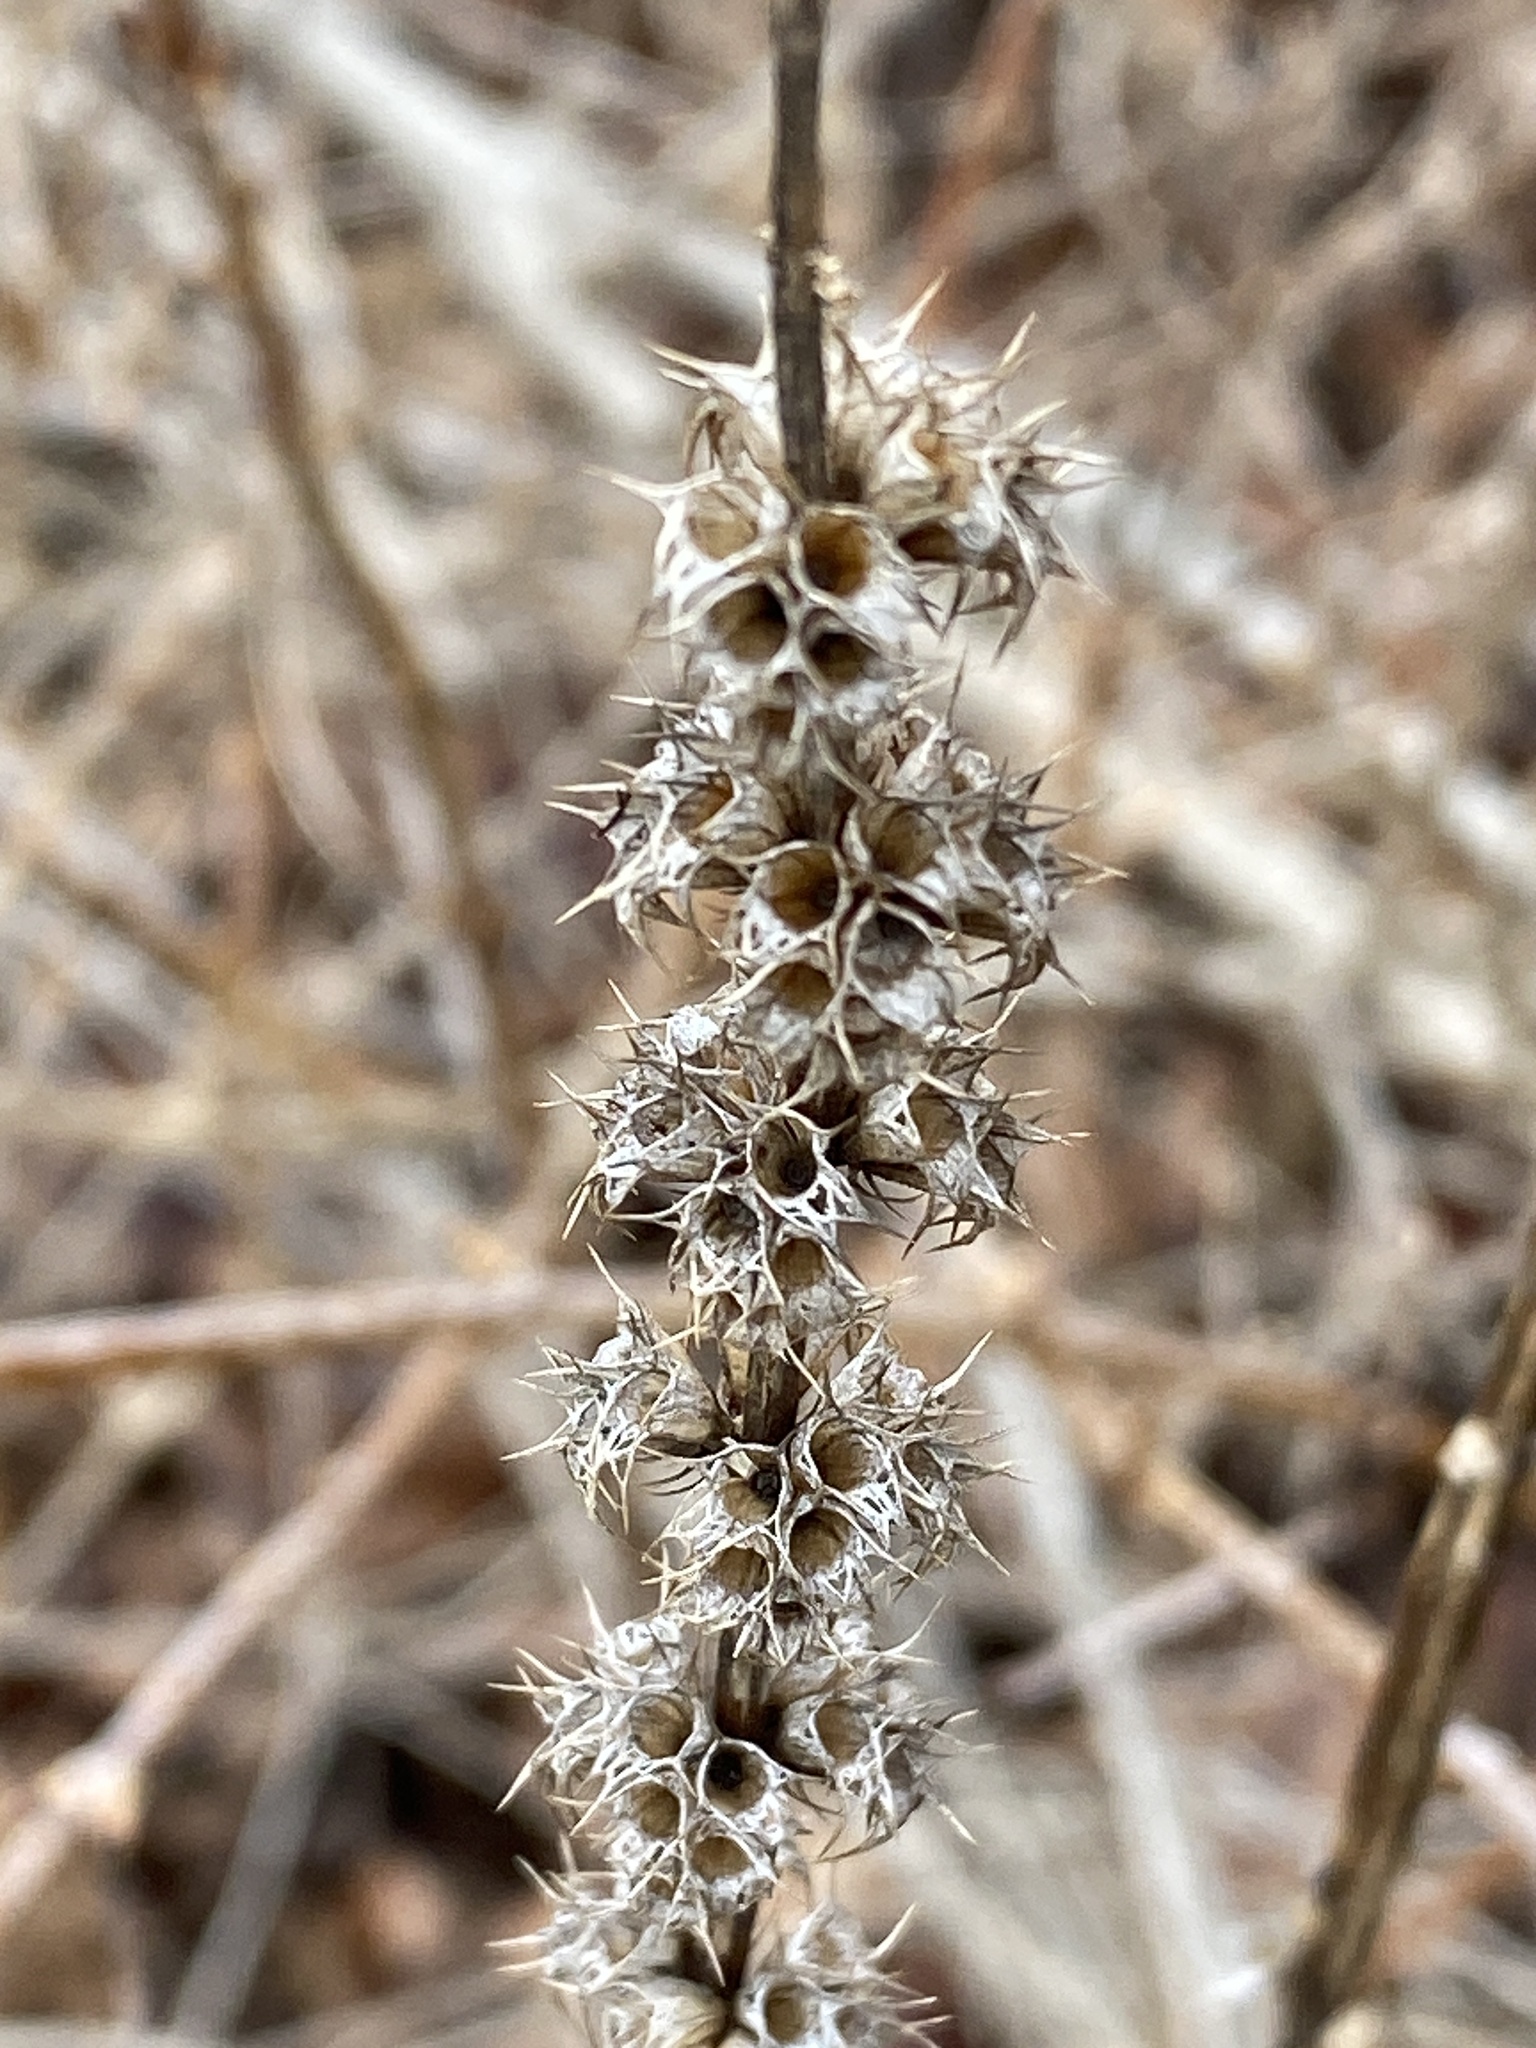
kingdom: Plantae
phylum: Tracheophyta
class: Magnoliopsida
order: Lamiales
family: Lamiaceae
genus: Leonurus
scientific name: Leonurus cardiaca
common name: Motherwort
